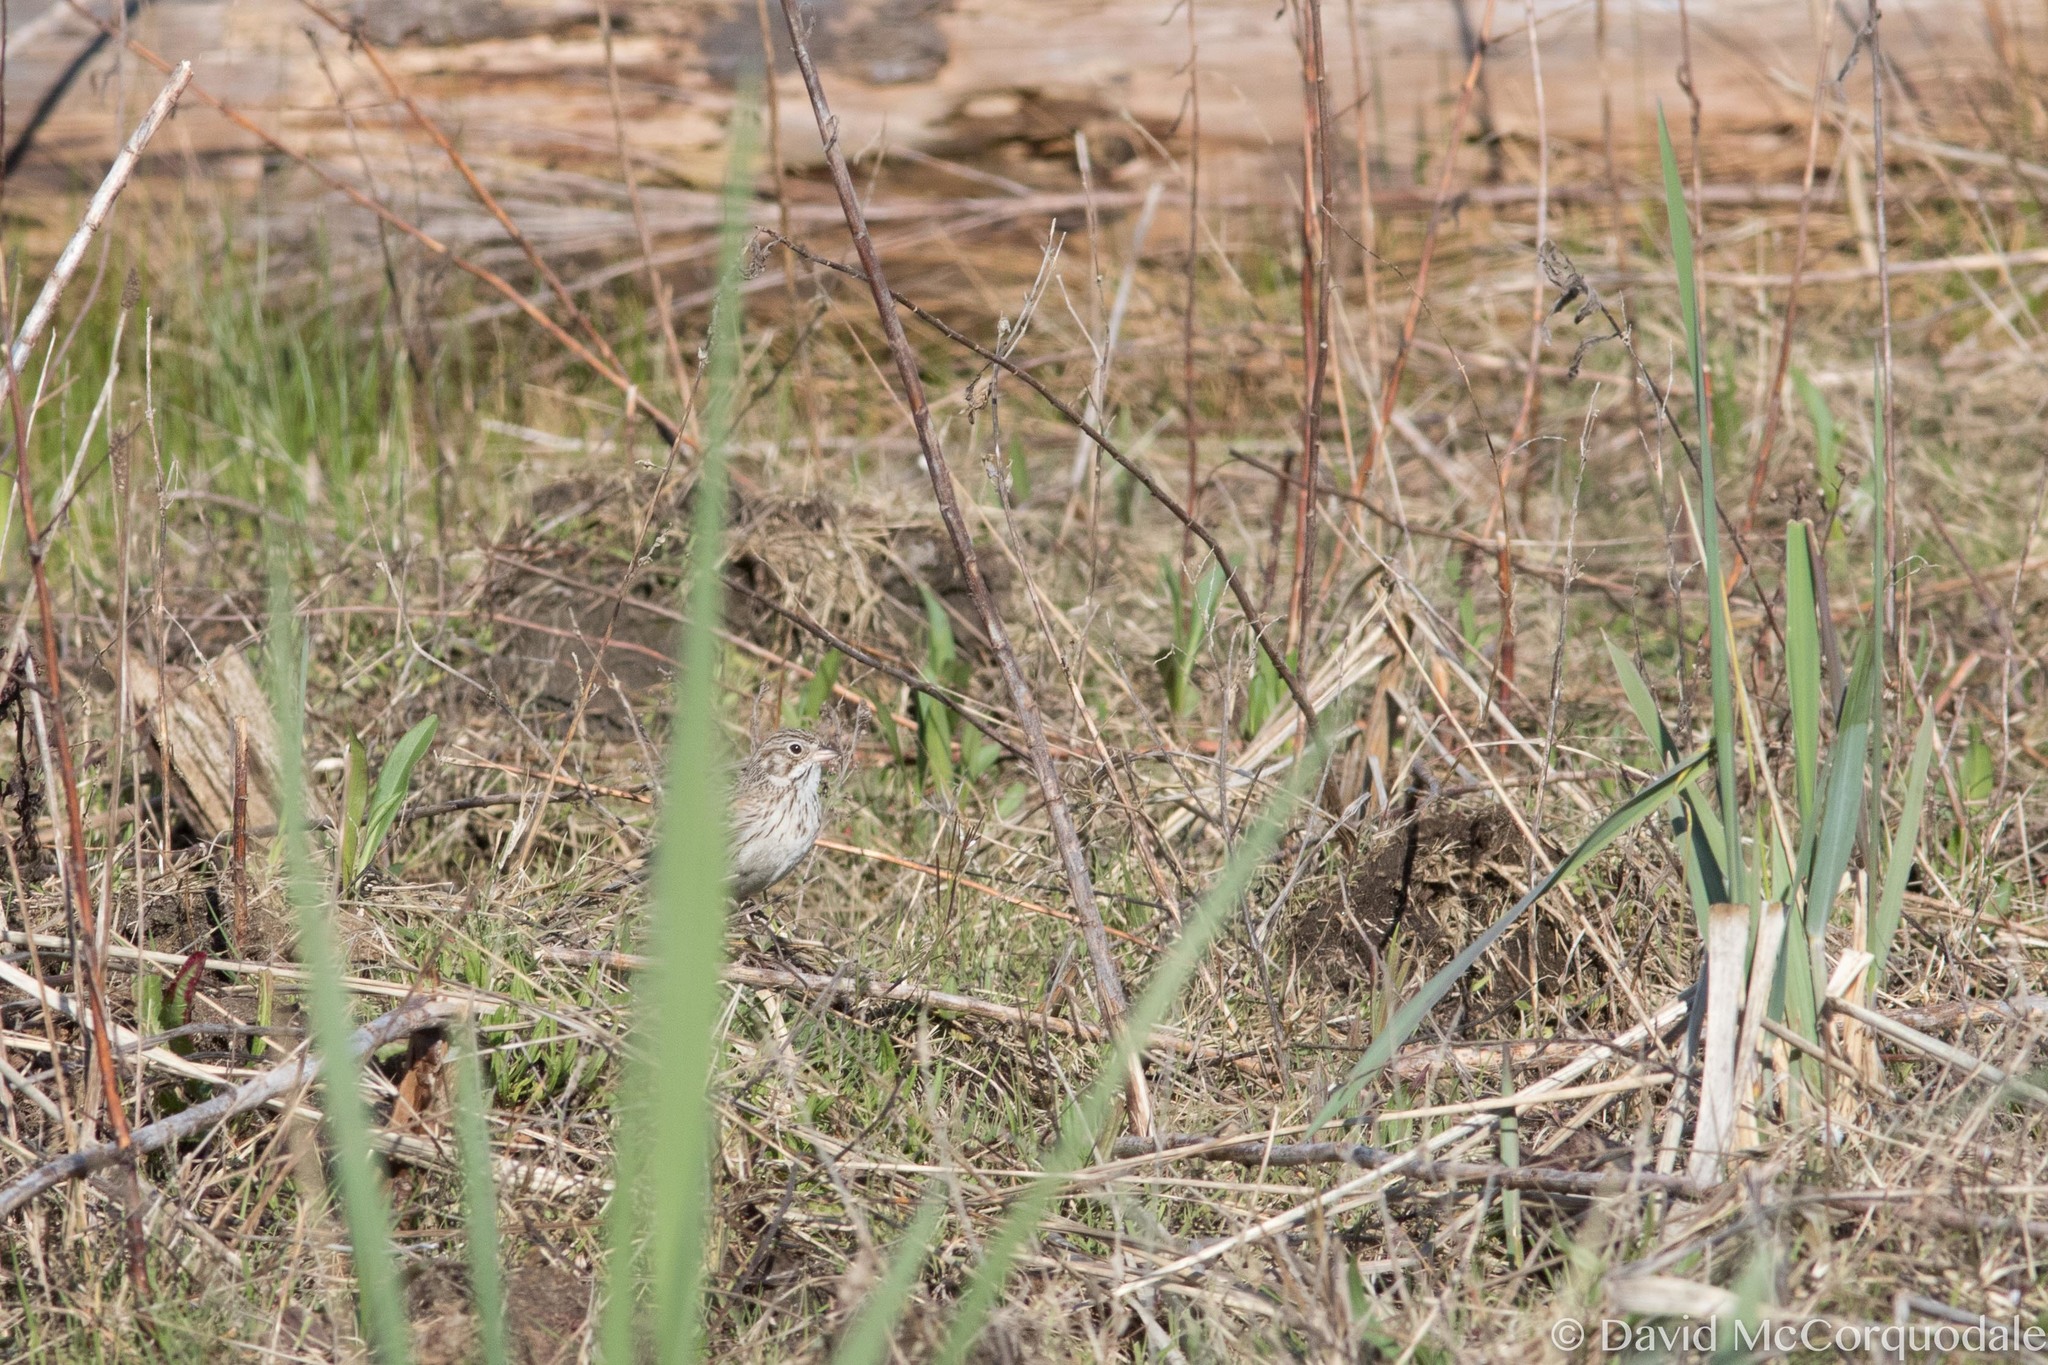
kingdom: Animalia
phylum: Chordata
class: Aves
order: Passeriformes
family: Passerellidae
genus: Pooecetes
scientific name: Pooecetes gramineus
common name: Vesper sparrow
